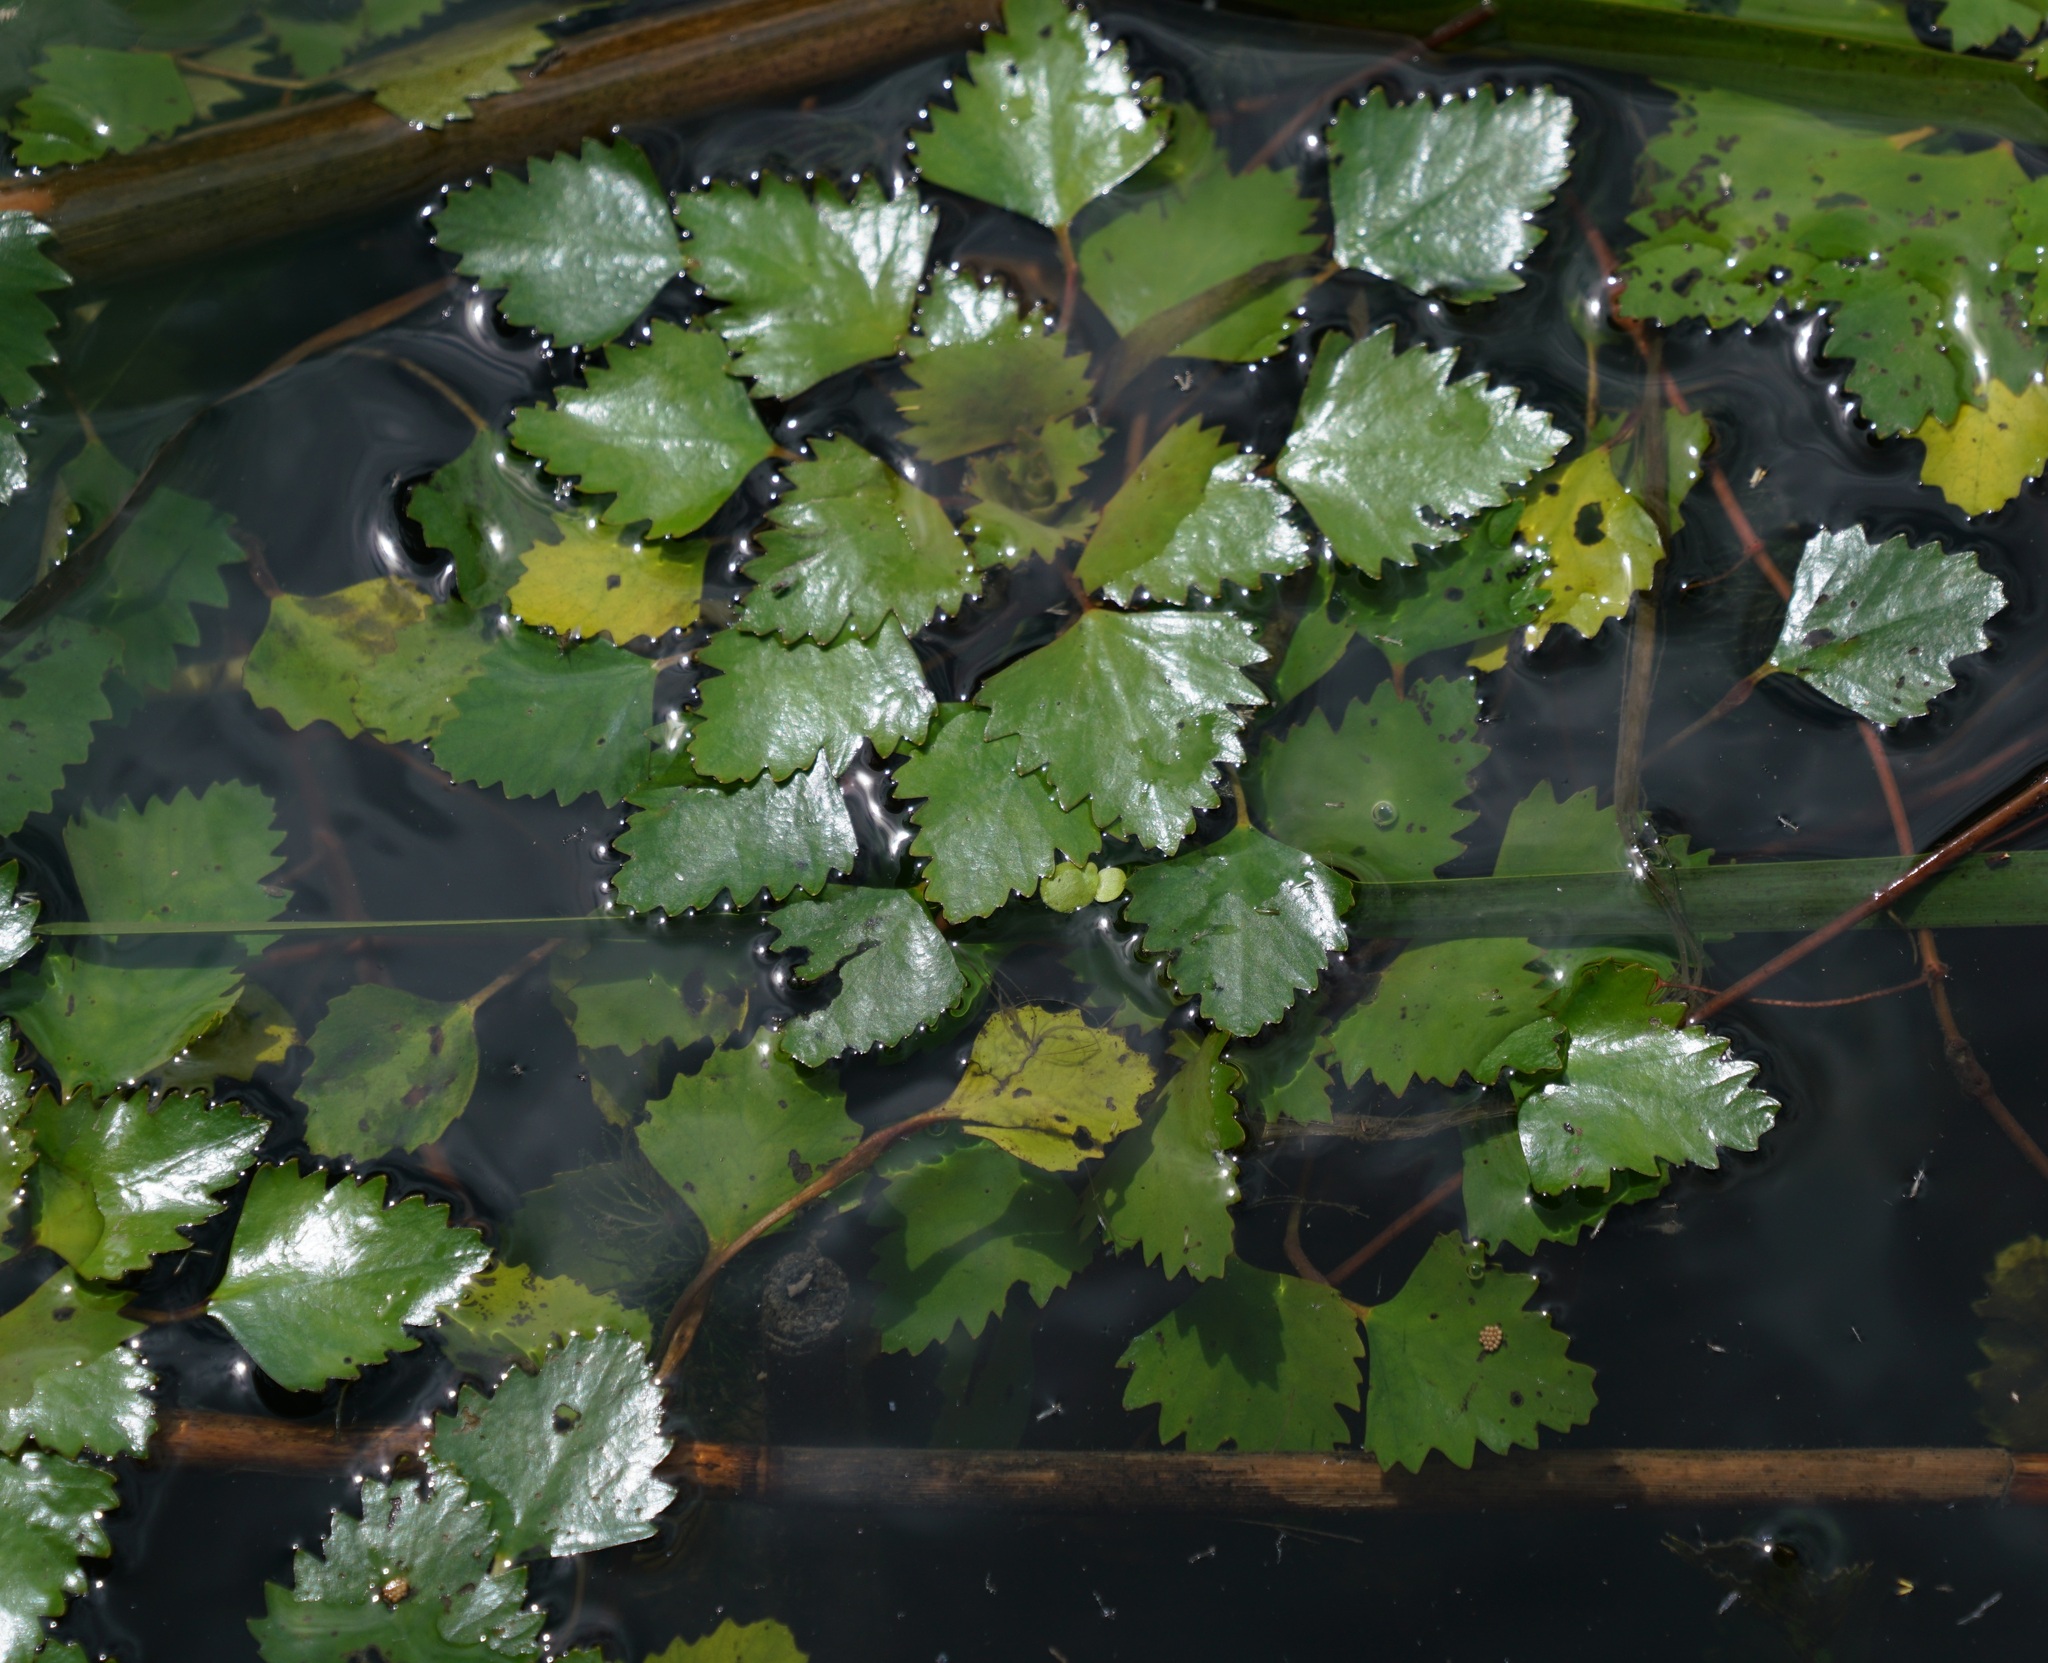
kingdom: Plantae
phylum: Tracheophyta
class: Magnoliopsida
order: Myrtales
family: Lythraceae
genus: Trapa
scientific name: Trapa natans
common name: Water chestnut
